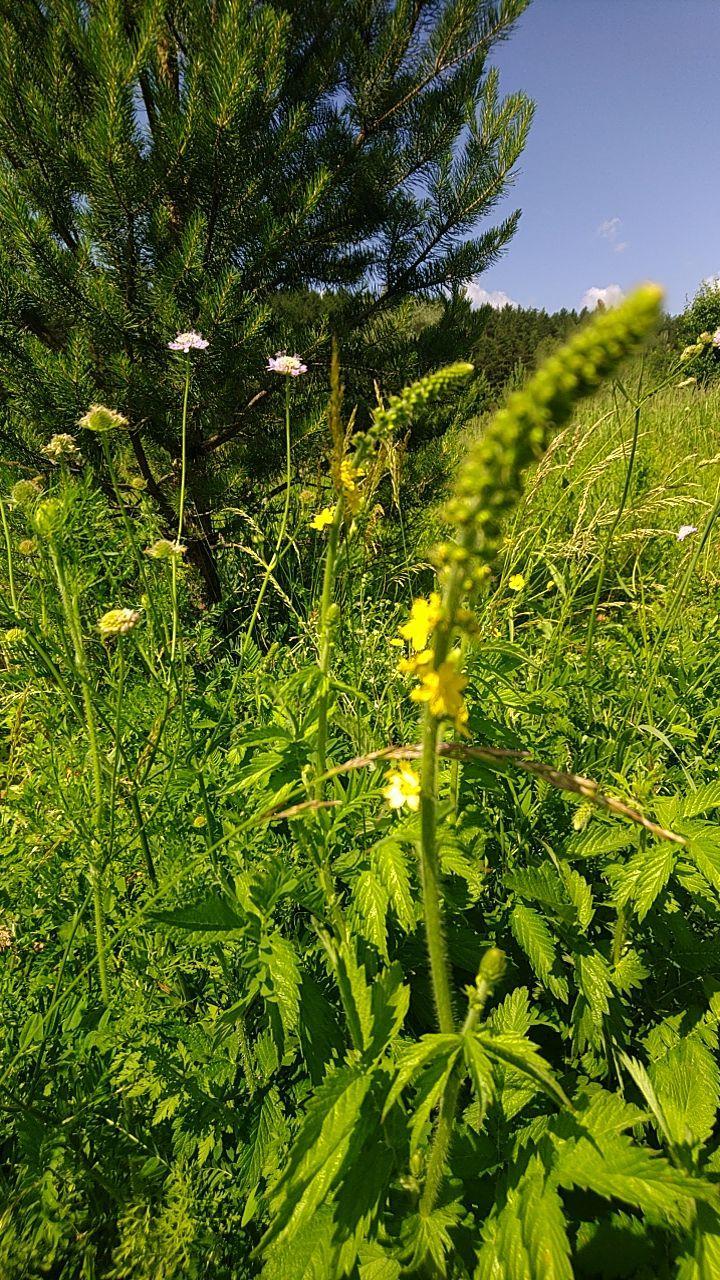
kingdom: Plantae
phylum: Tracheophyta
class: Magnoliopsida
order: Rosales
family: Rosaceae
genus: Agrimonia
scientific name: Agrimonia eupatoria
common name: Agrimony
